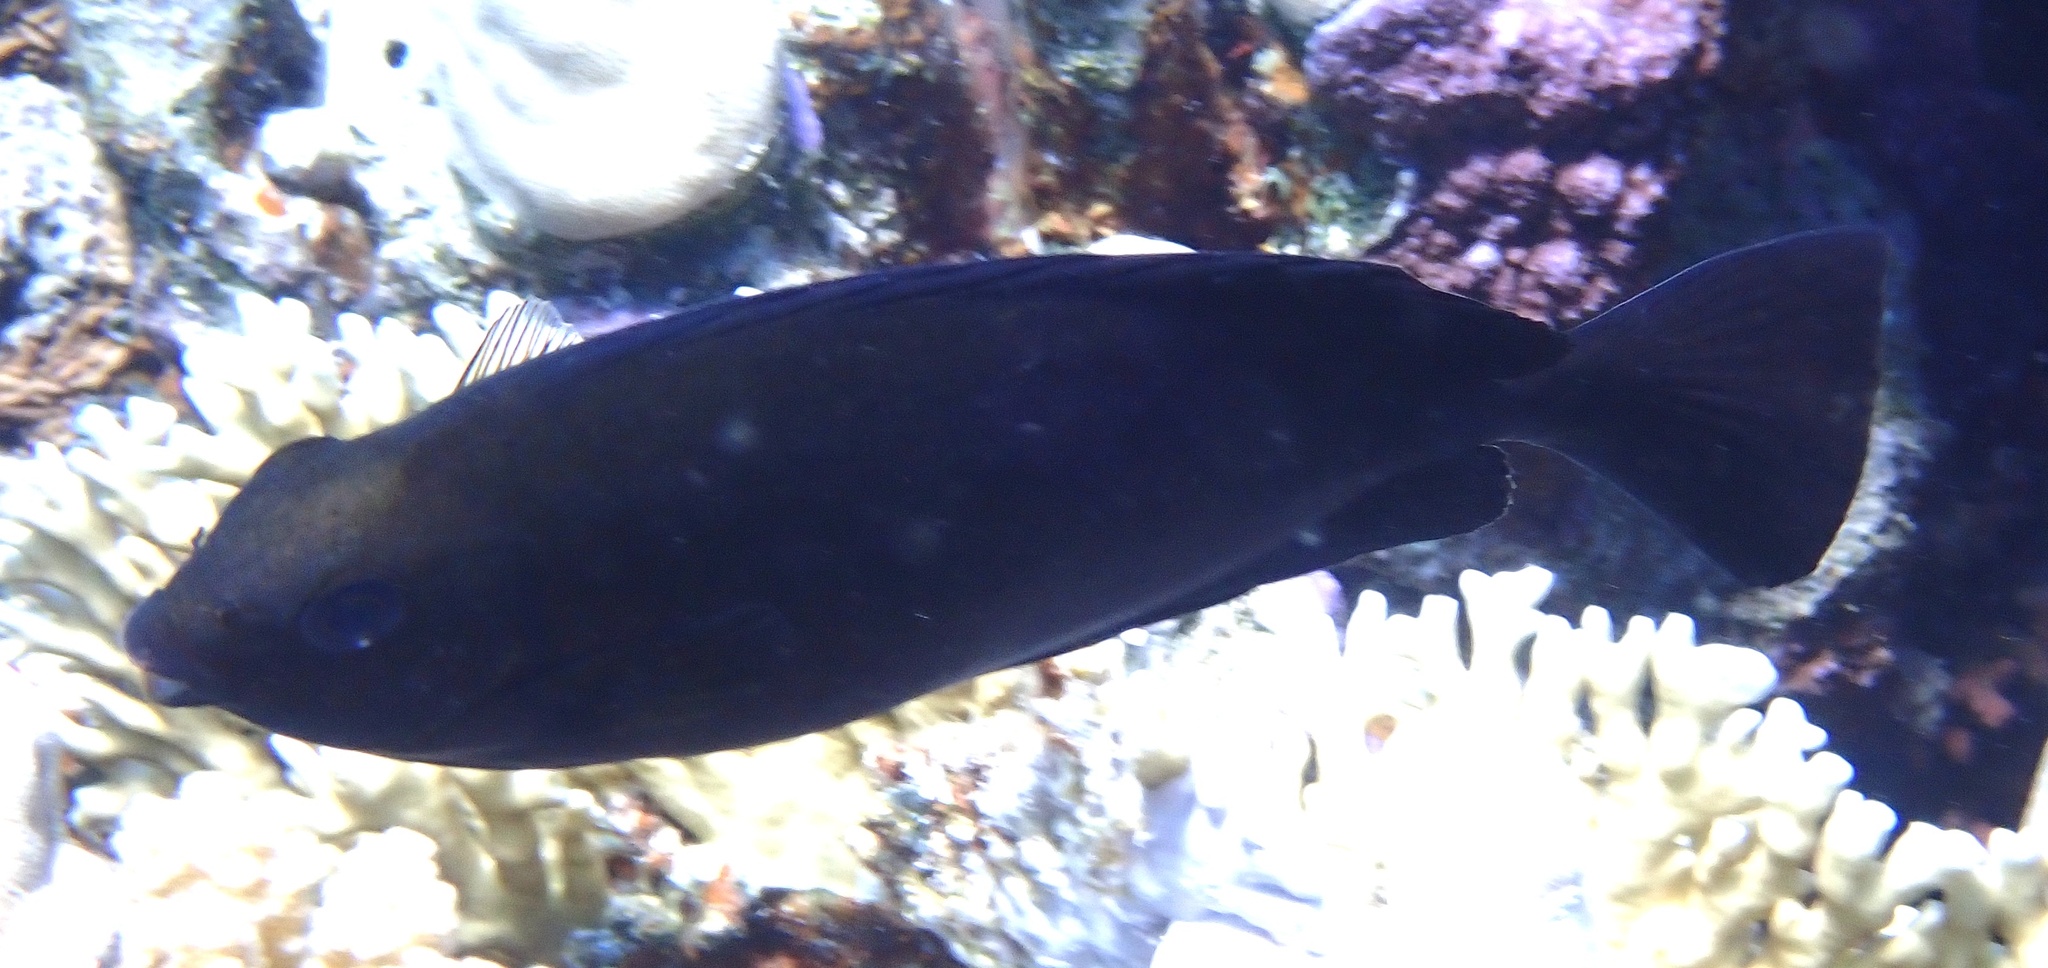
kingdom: Animalia
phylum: Chordata
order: Perciformes
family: Siganidae
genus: Siganus
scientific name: Siganus luridus
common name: Dusky spinefoot
